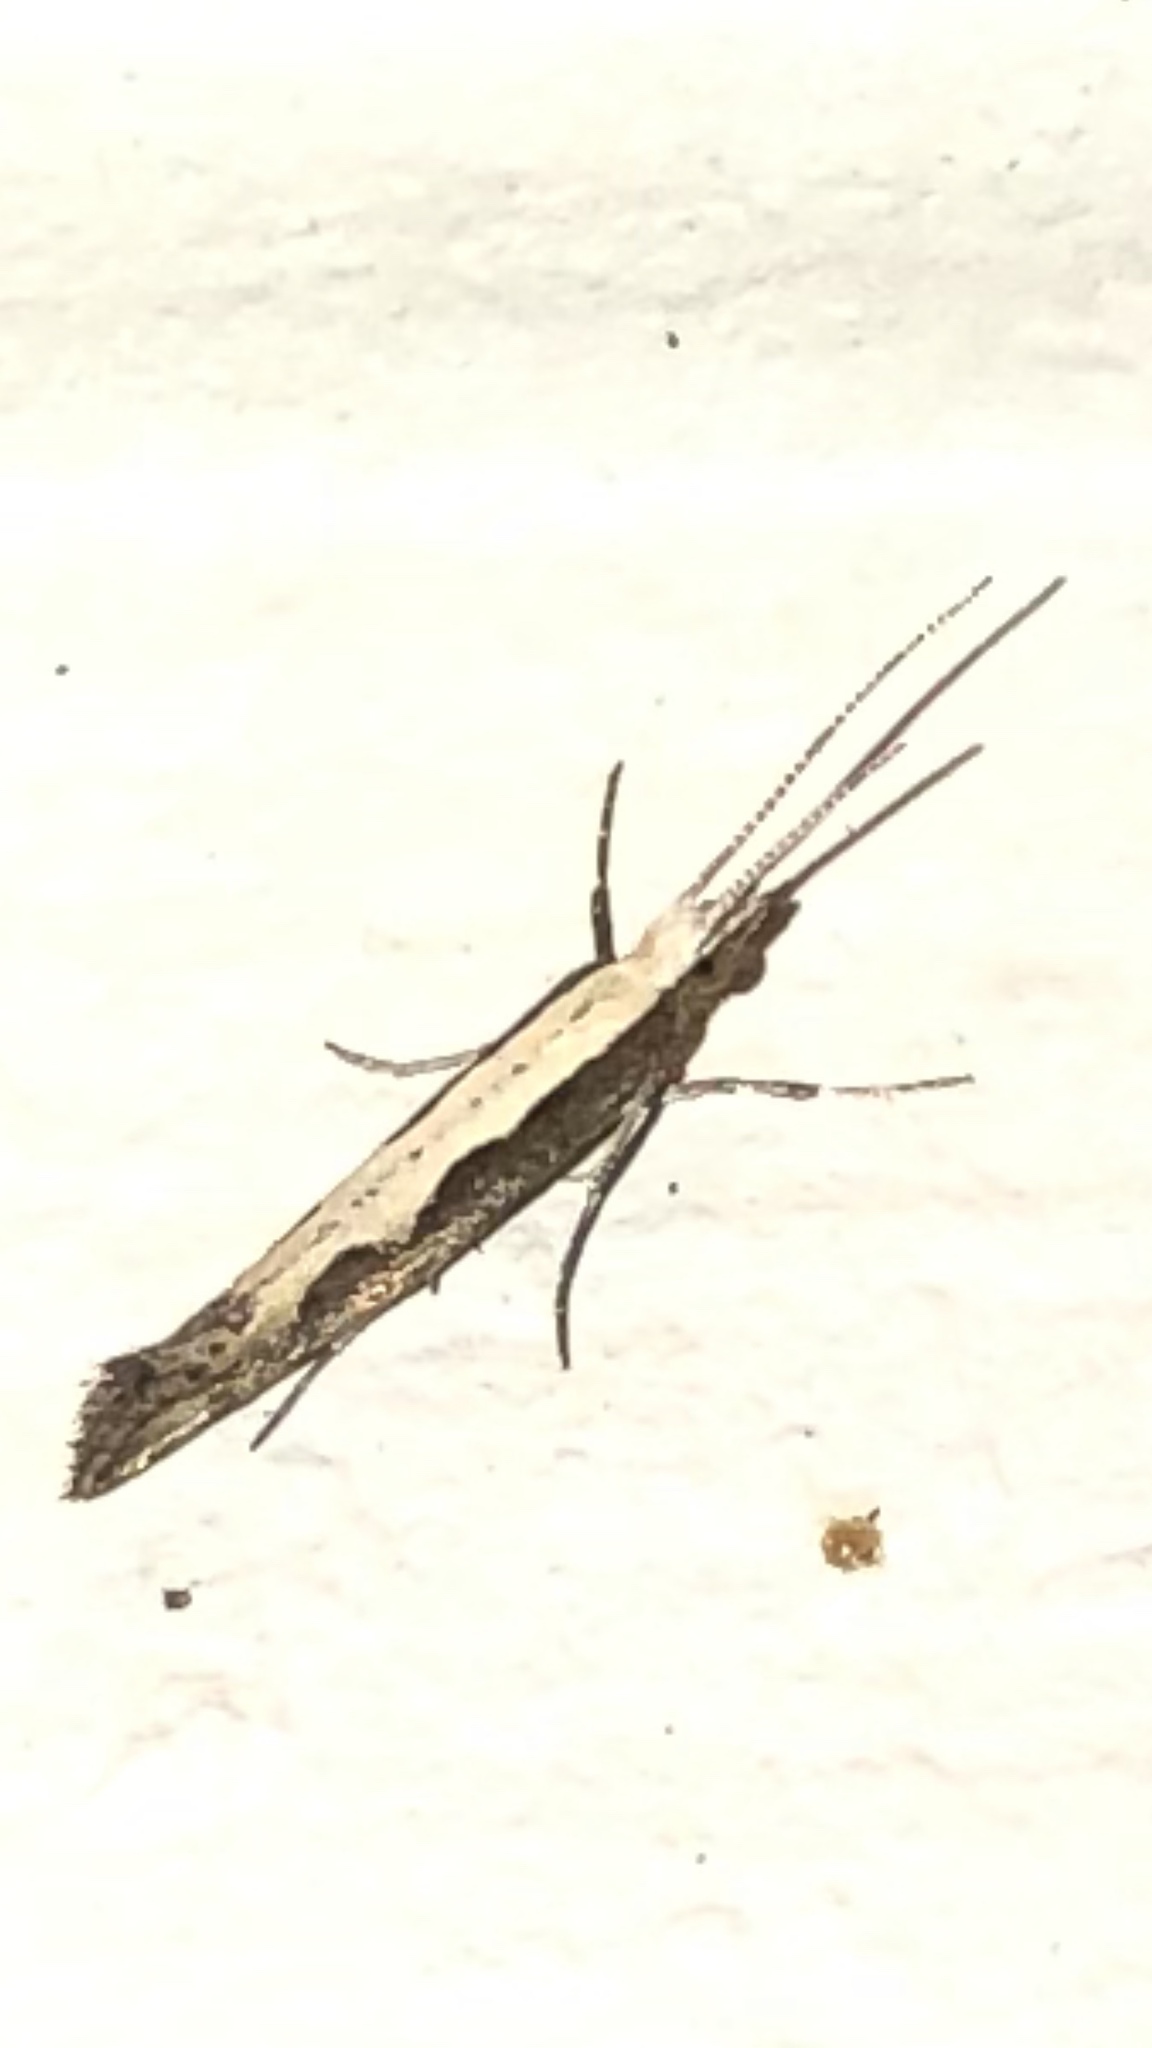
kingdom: Animalia
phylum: Arthropoda
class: Insecta
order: Lepidoptera
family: Plutellidae
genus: Plutella
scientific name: Plutella xylostella
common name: Diamond-back moth
